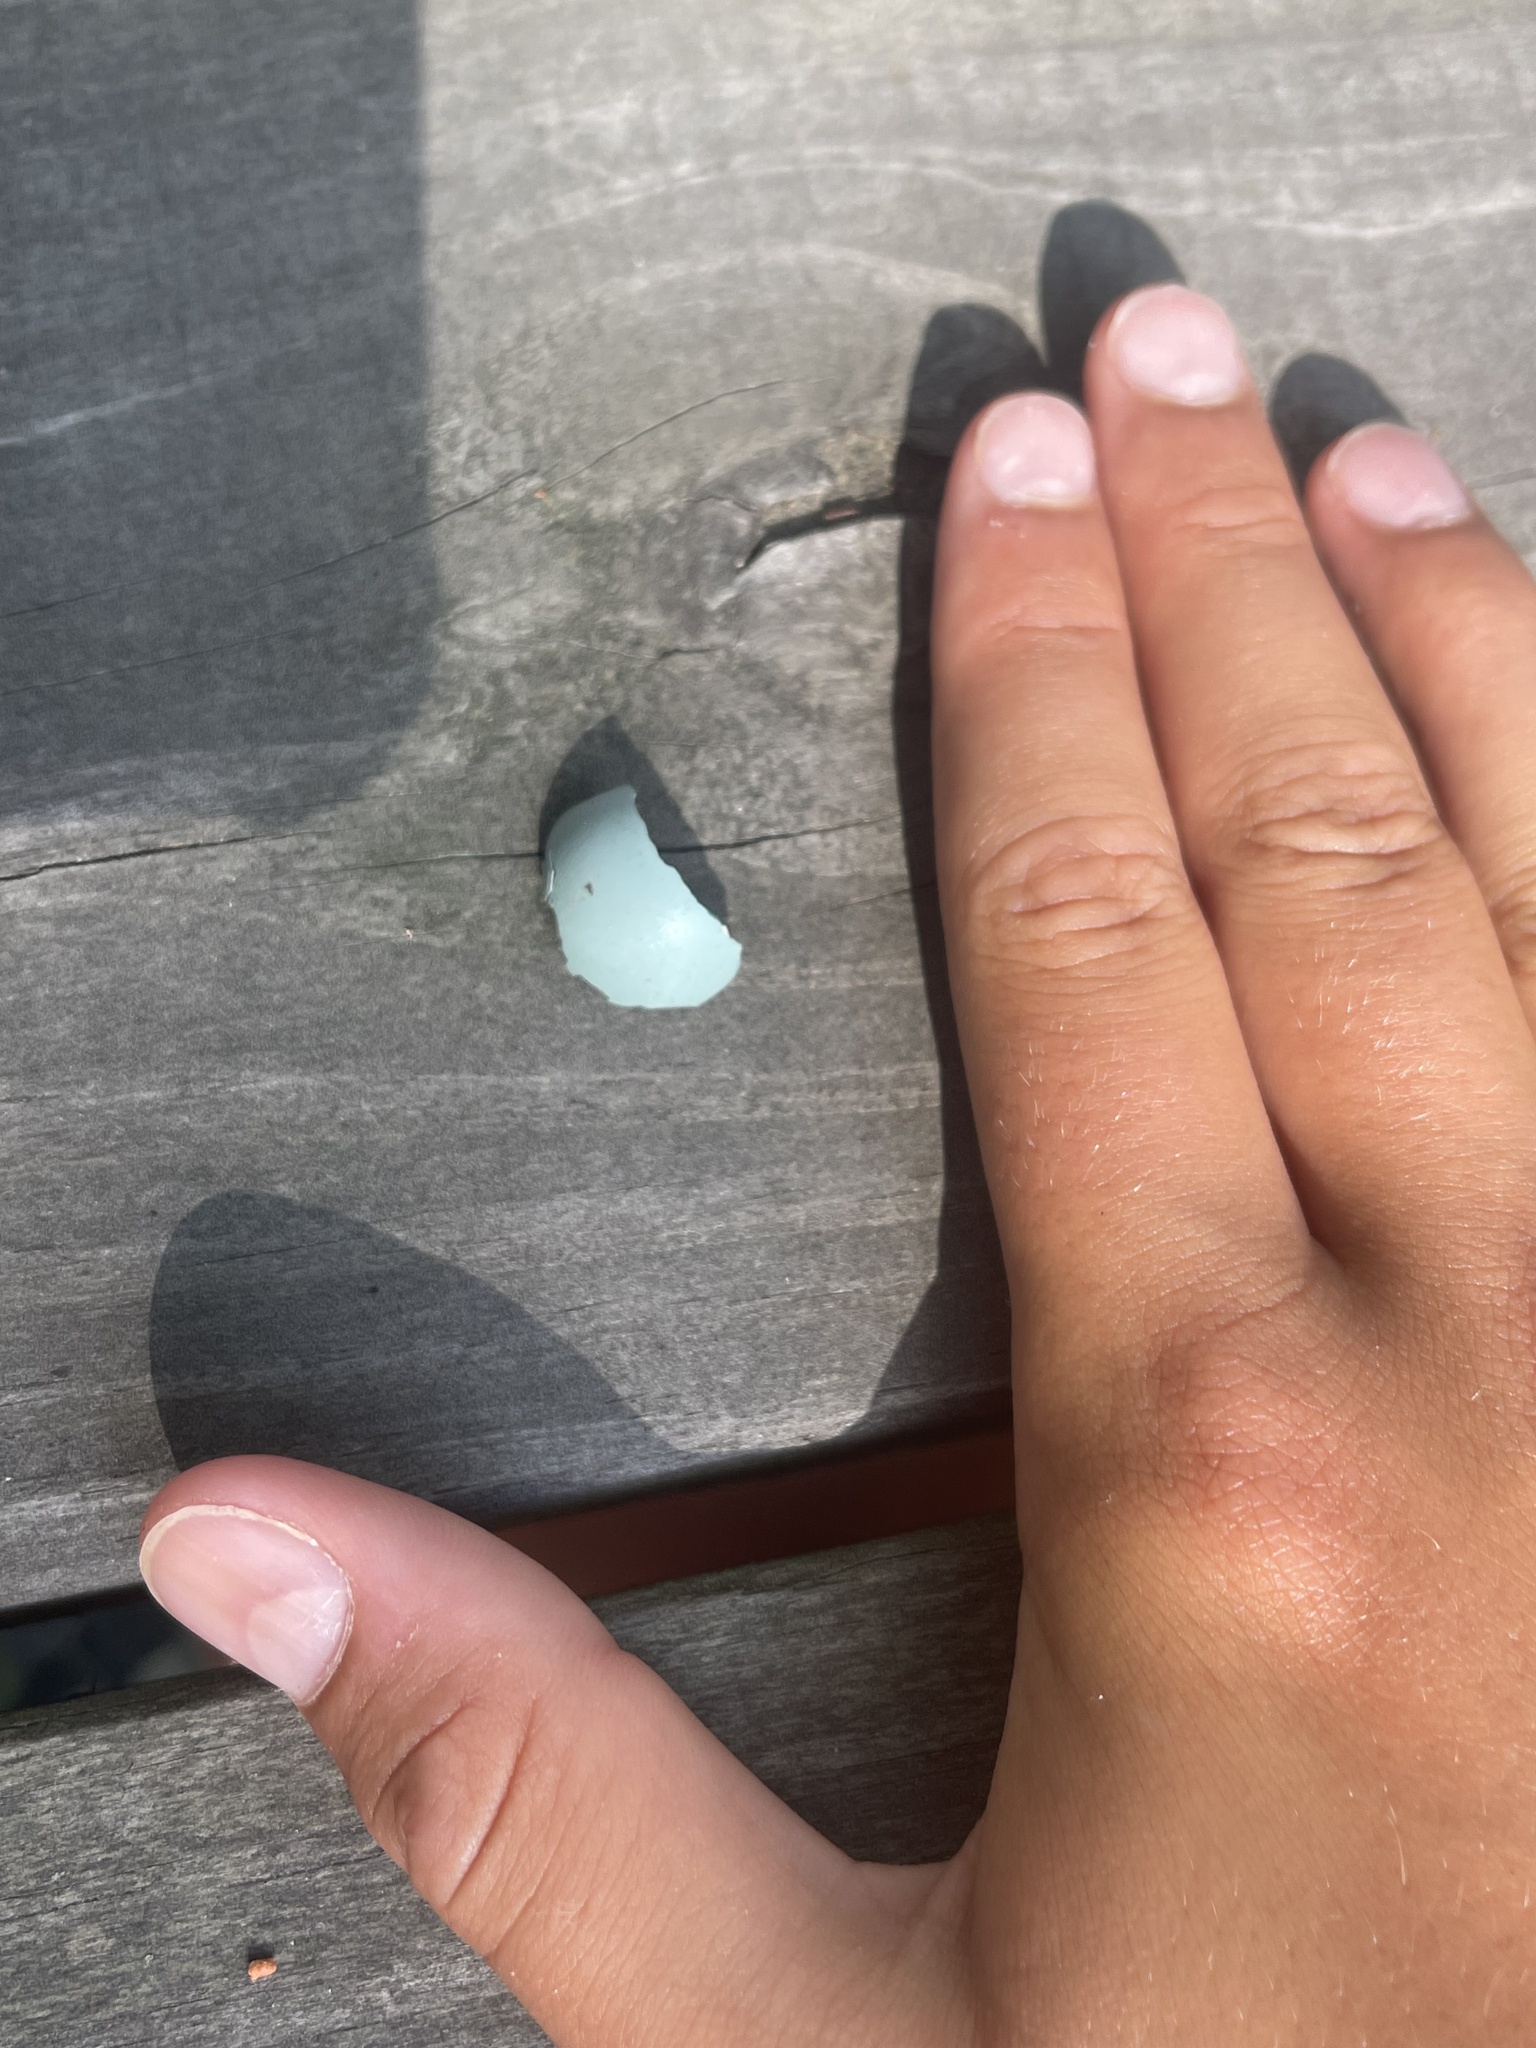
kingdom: Animalia
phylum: Chordata
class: Aves
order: Passeriformes
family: Turdidae
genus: Turdus
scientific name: Turdus migratorius
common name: American robin
